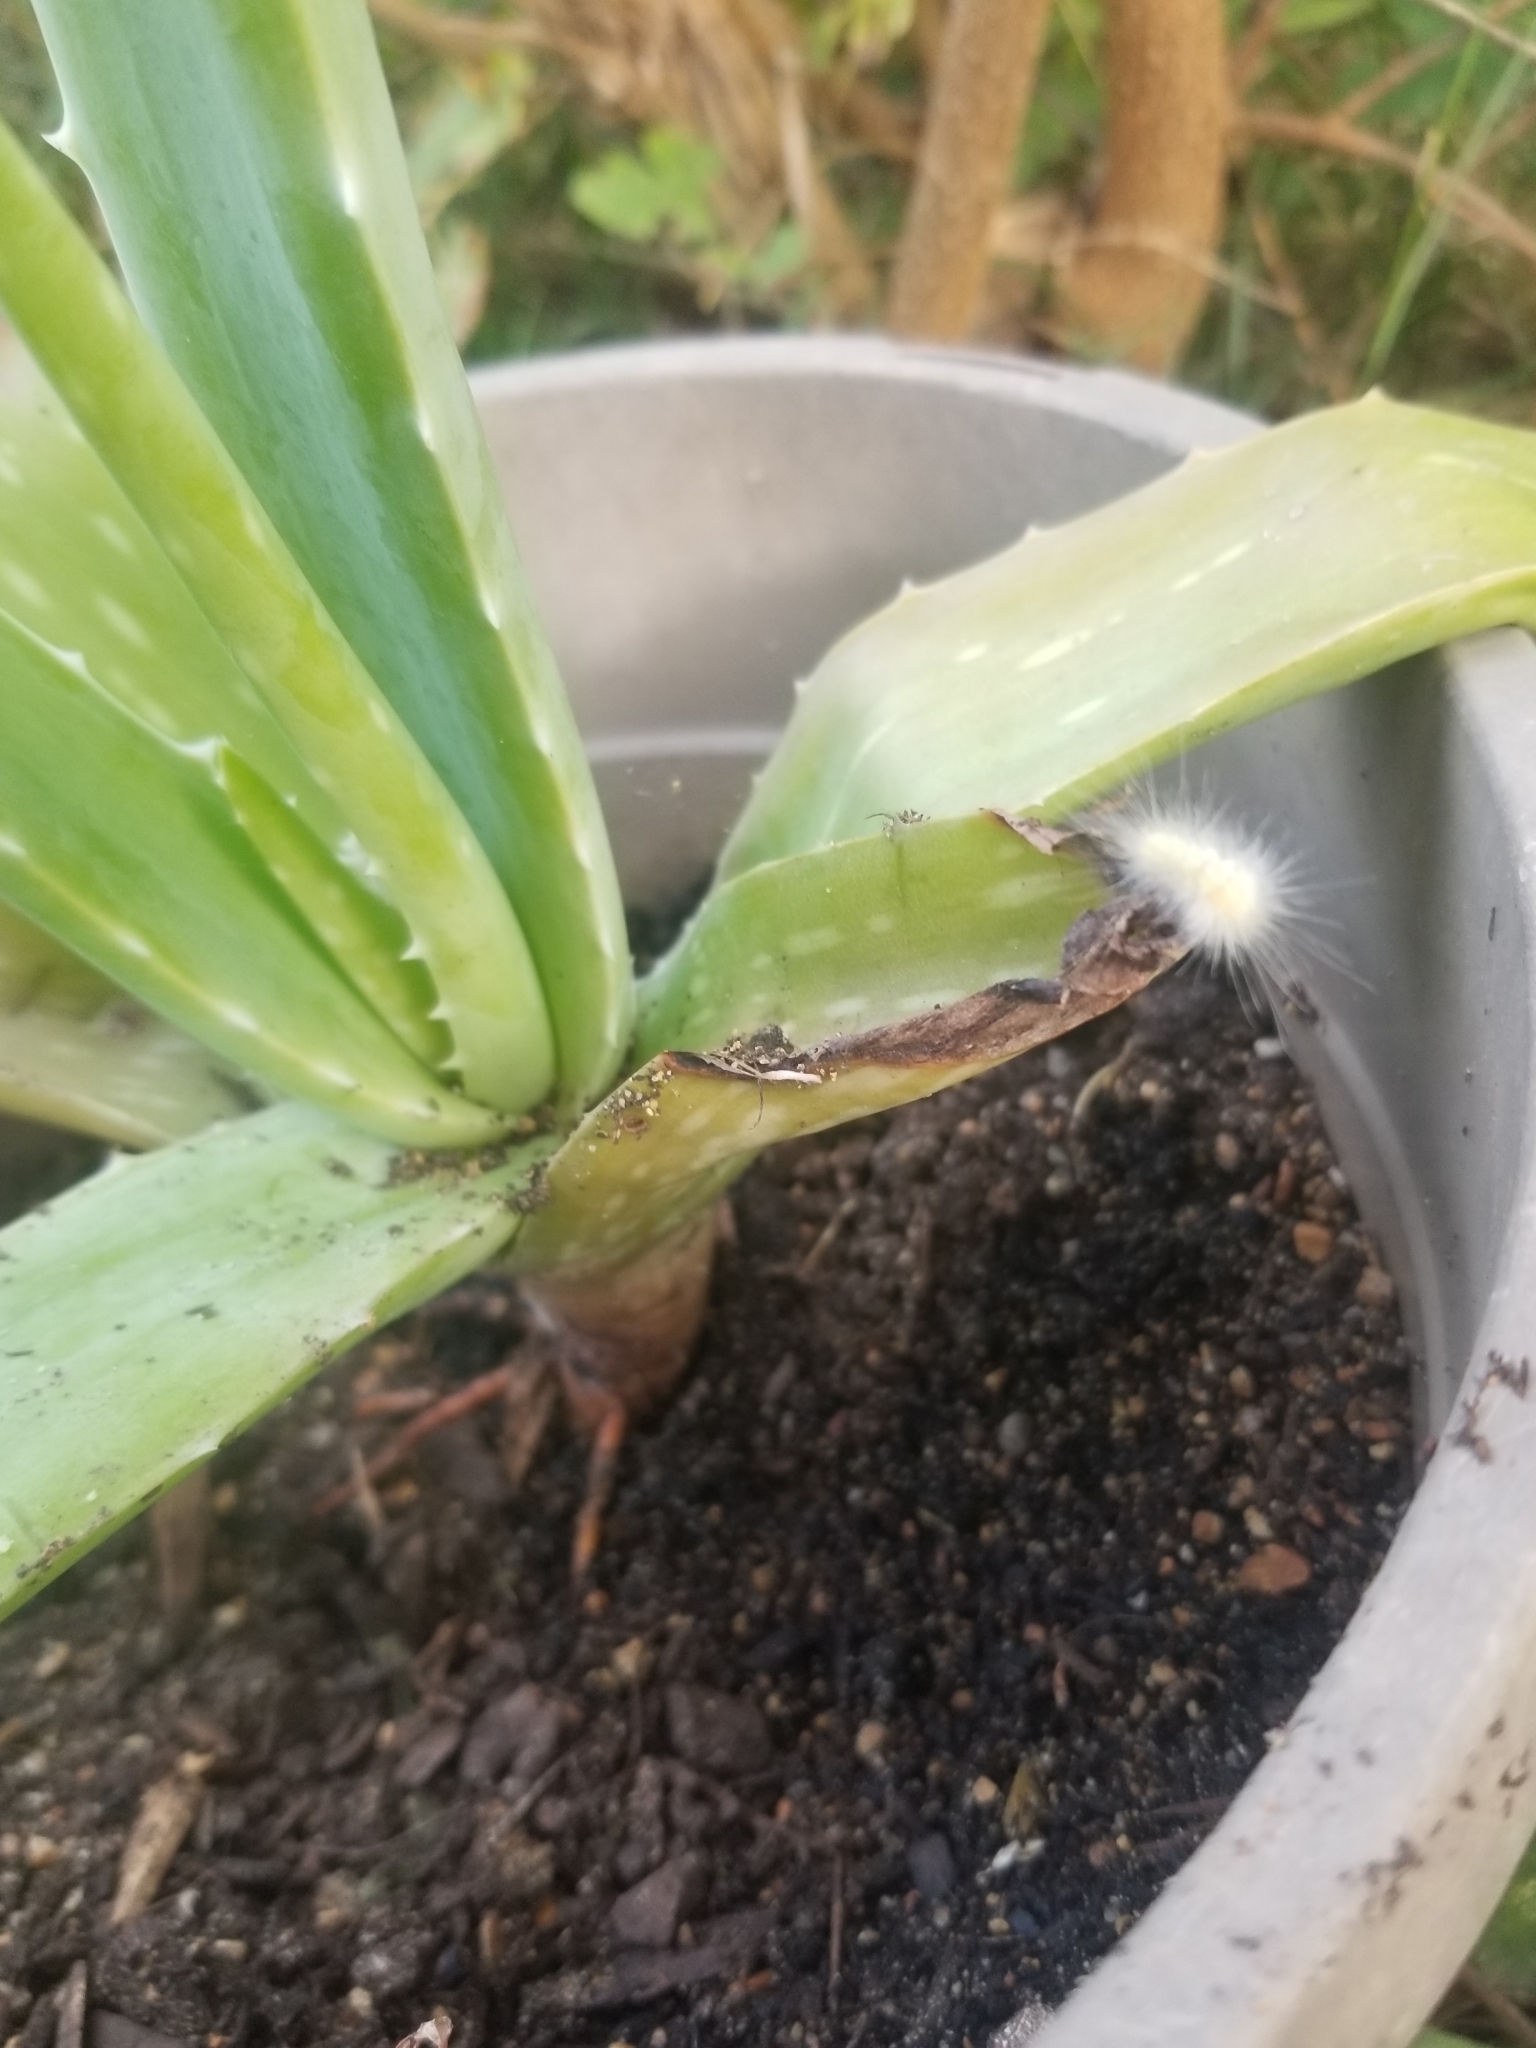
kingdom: Animalia
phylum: Arthropoda
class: Insecta
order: Lepidoptera
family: Erebidae
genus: Spilosoma
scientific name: Spilosoma virginica
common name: Virginia tiger moth
